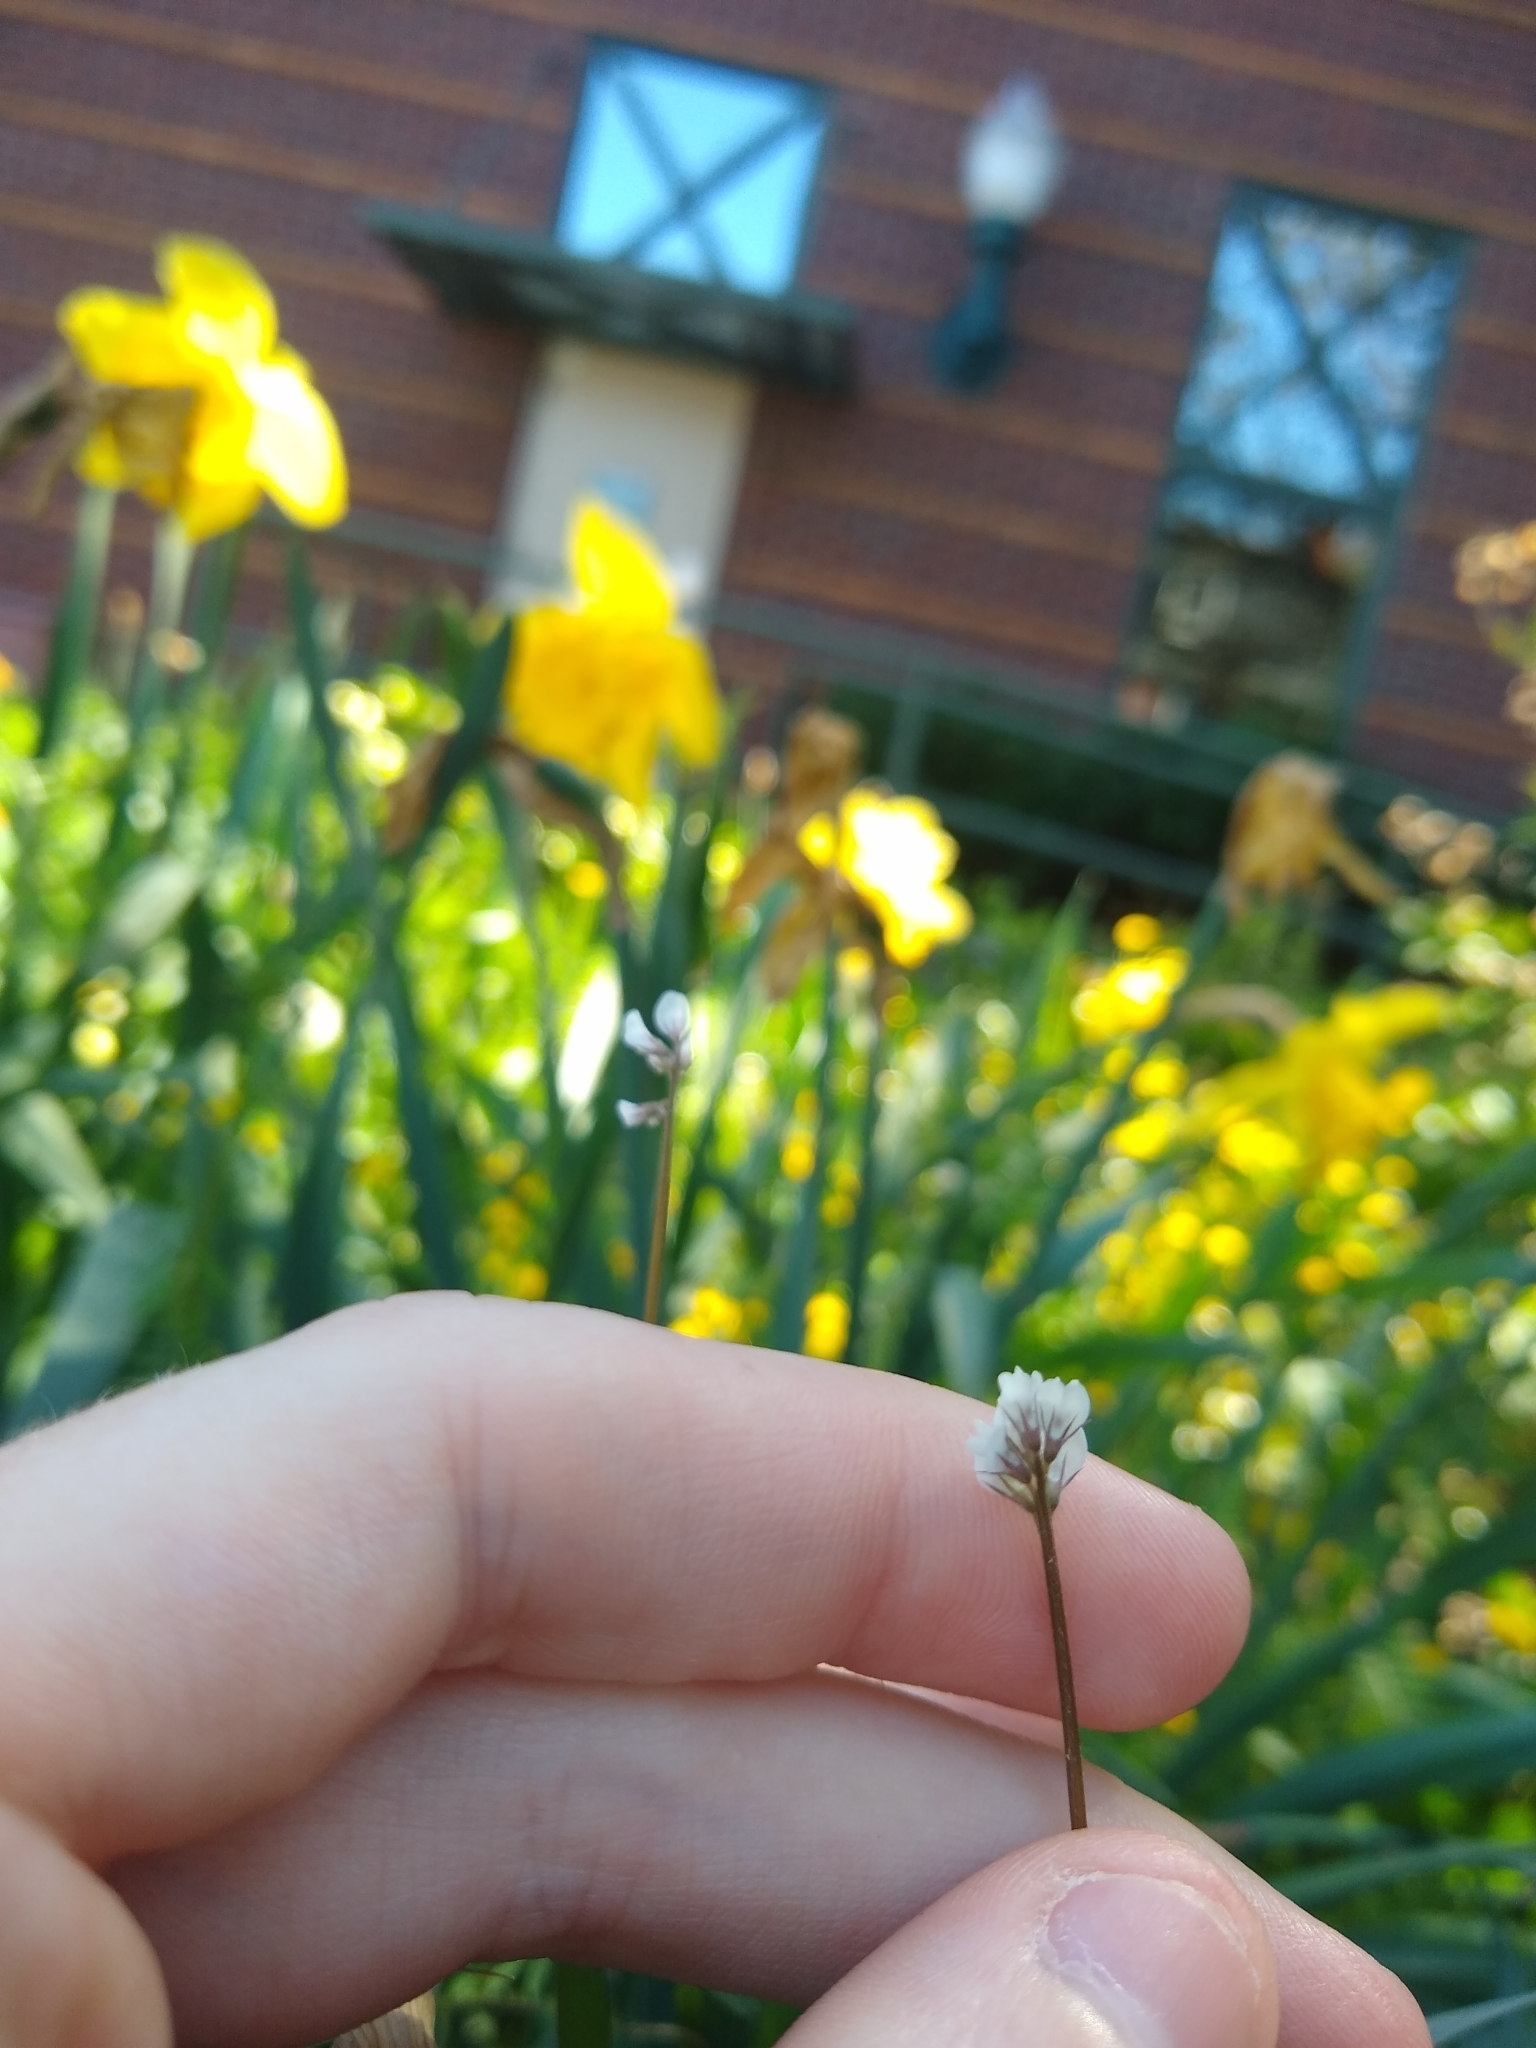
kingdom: Plantae
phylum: Tracheophyta
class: Magnoliopsida
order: Fabales
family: Fabaceae
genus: Vicia
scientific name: Vicia hirsuta
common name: Tiny vetch
